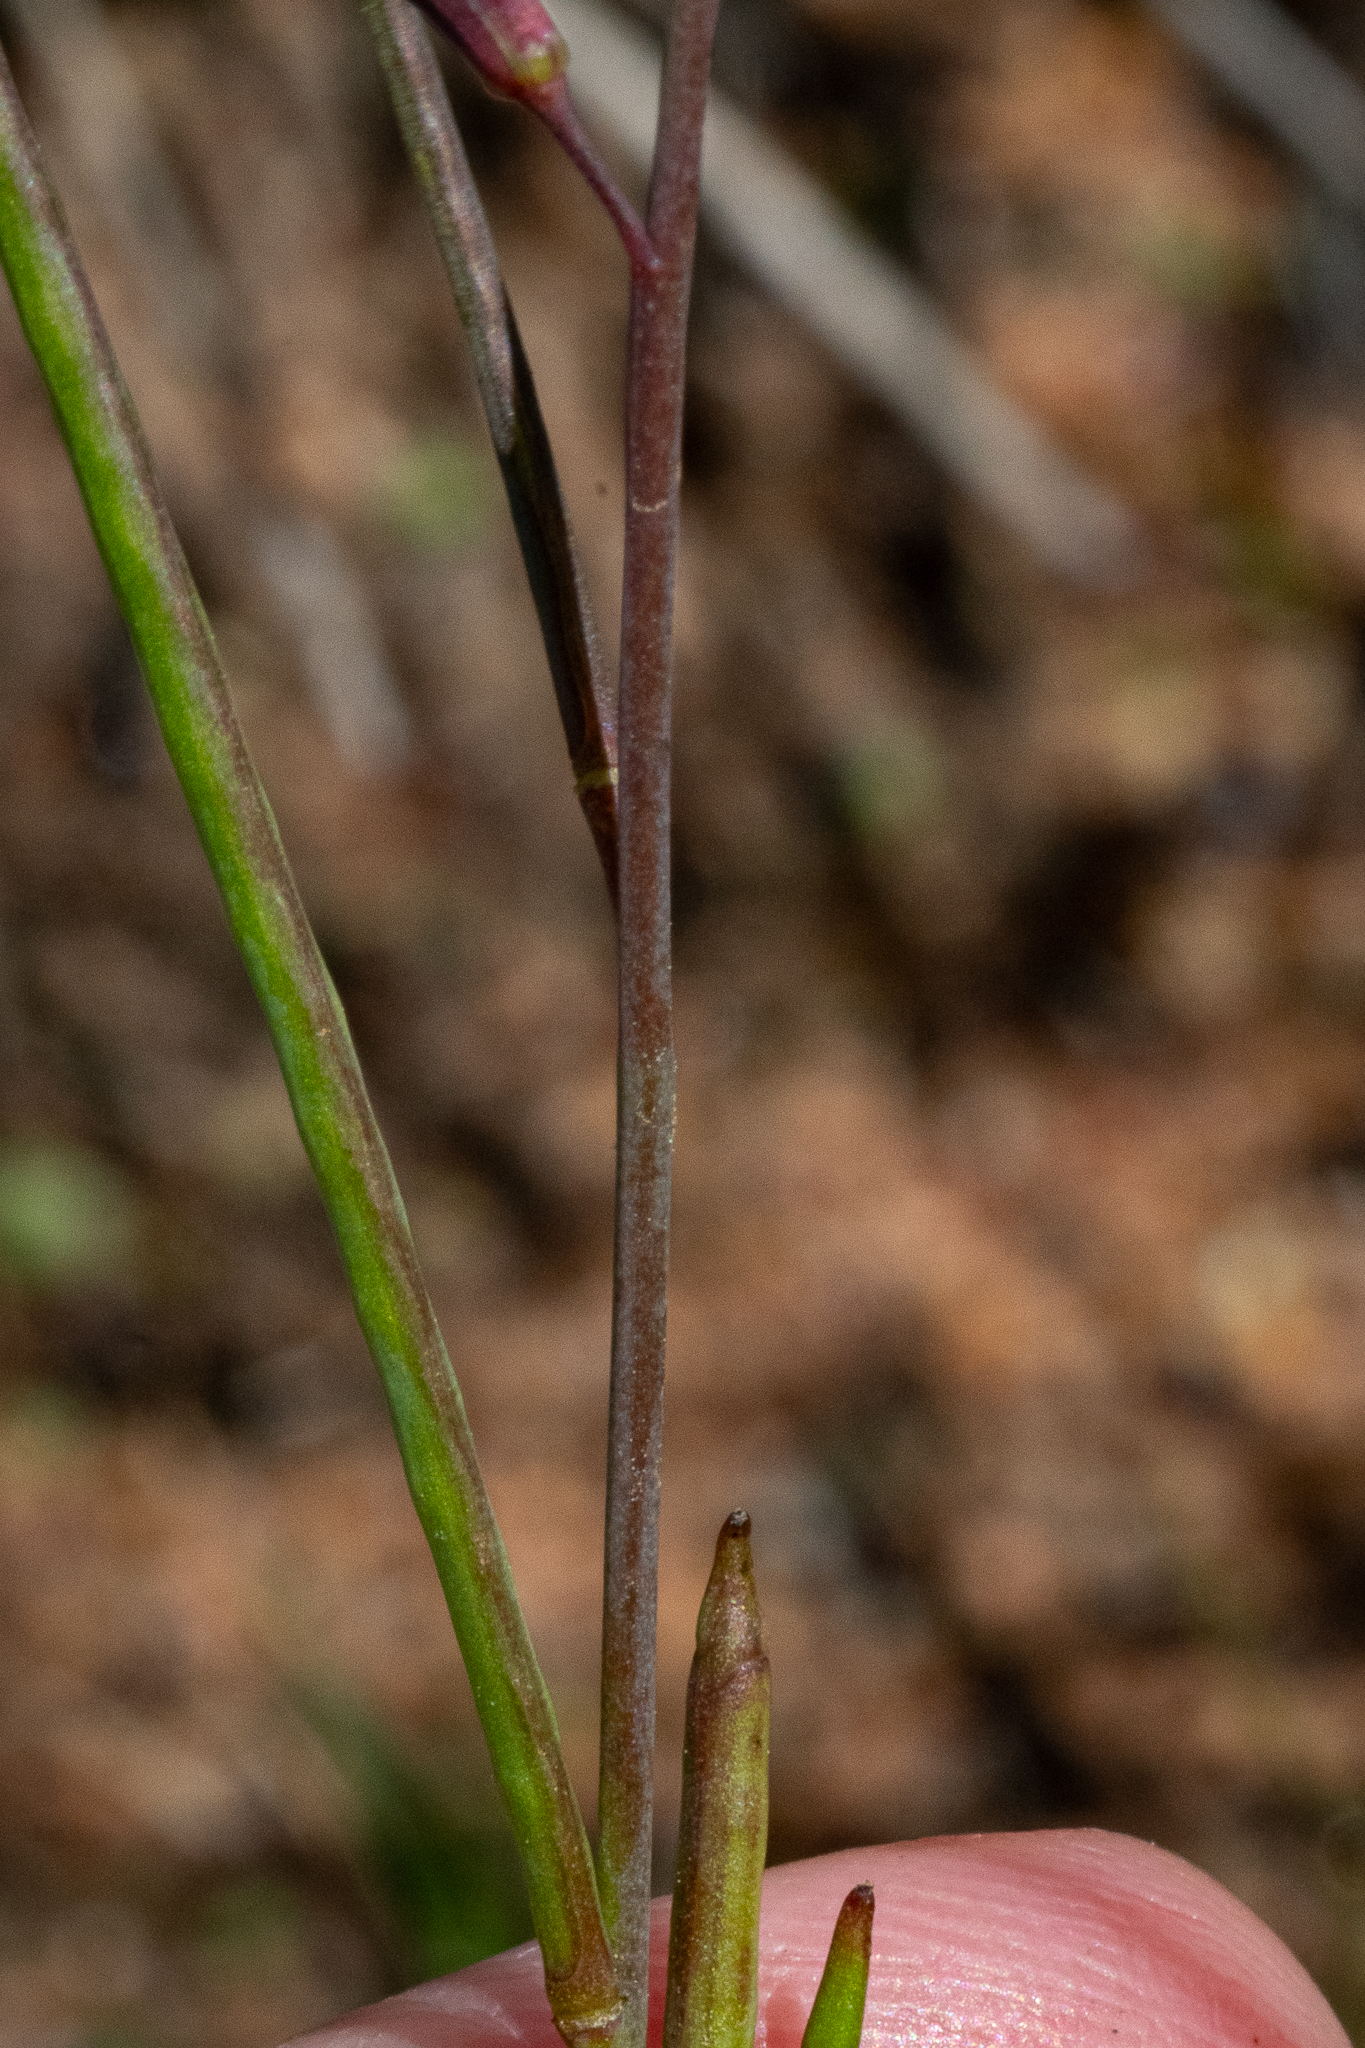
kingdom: Plantae
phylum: Tracheophyta
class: Magnoliopsida
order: Brassicales
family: Brassicaceae
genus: Heliophila
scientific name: Heliophila digitata
